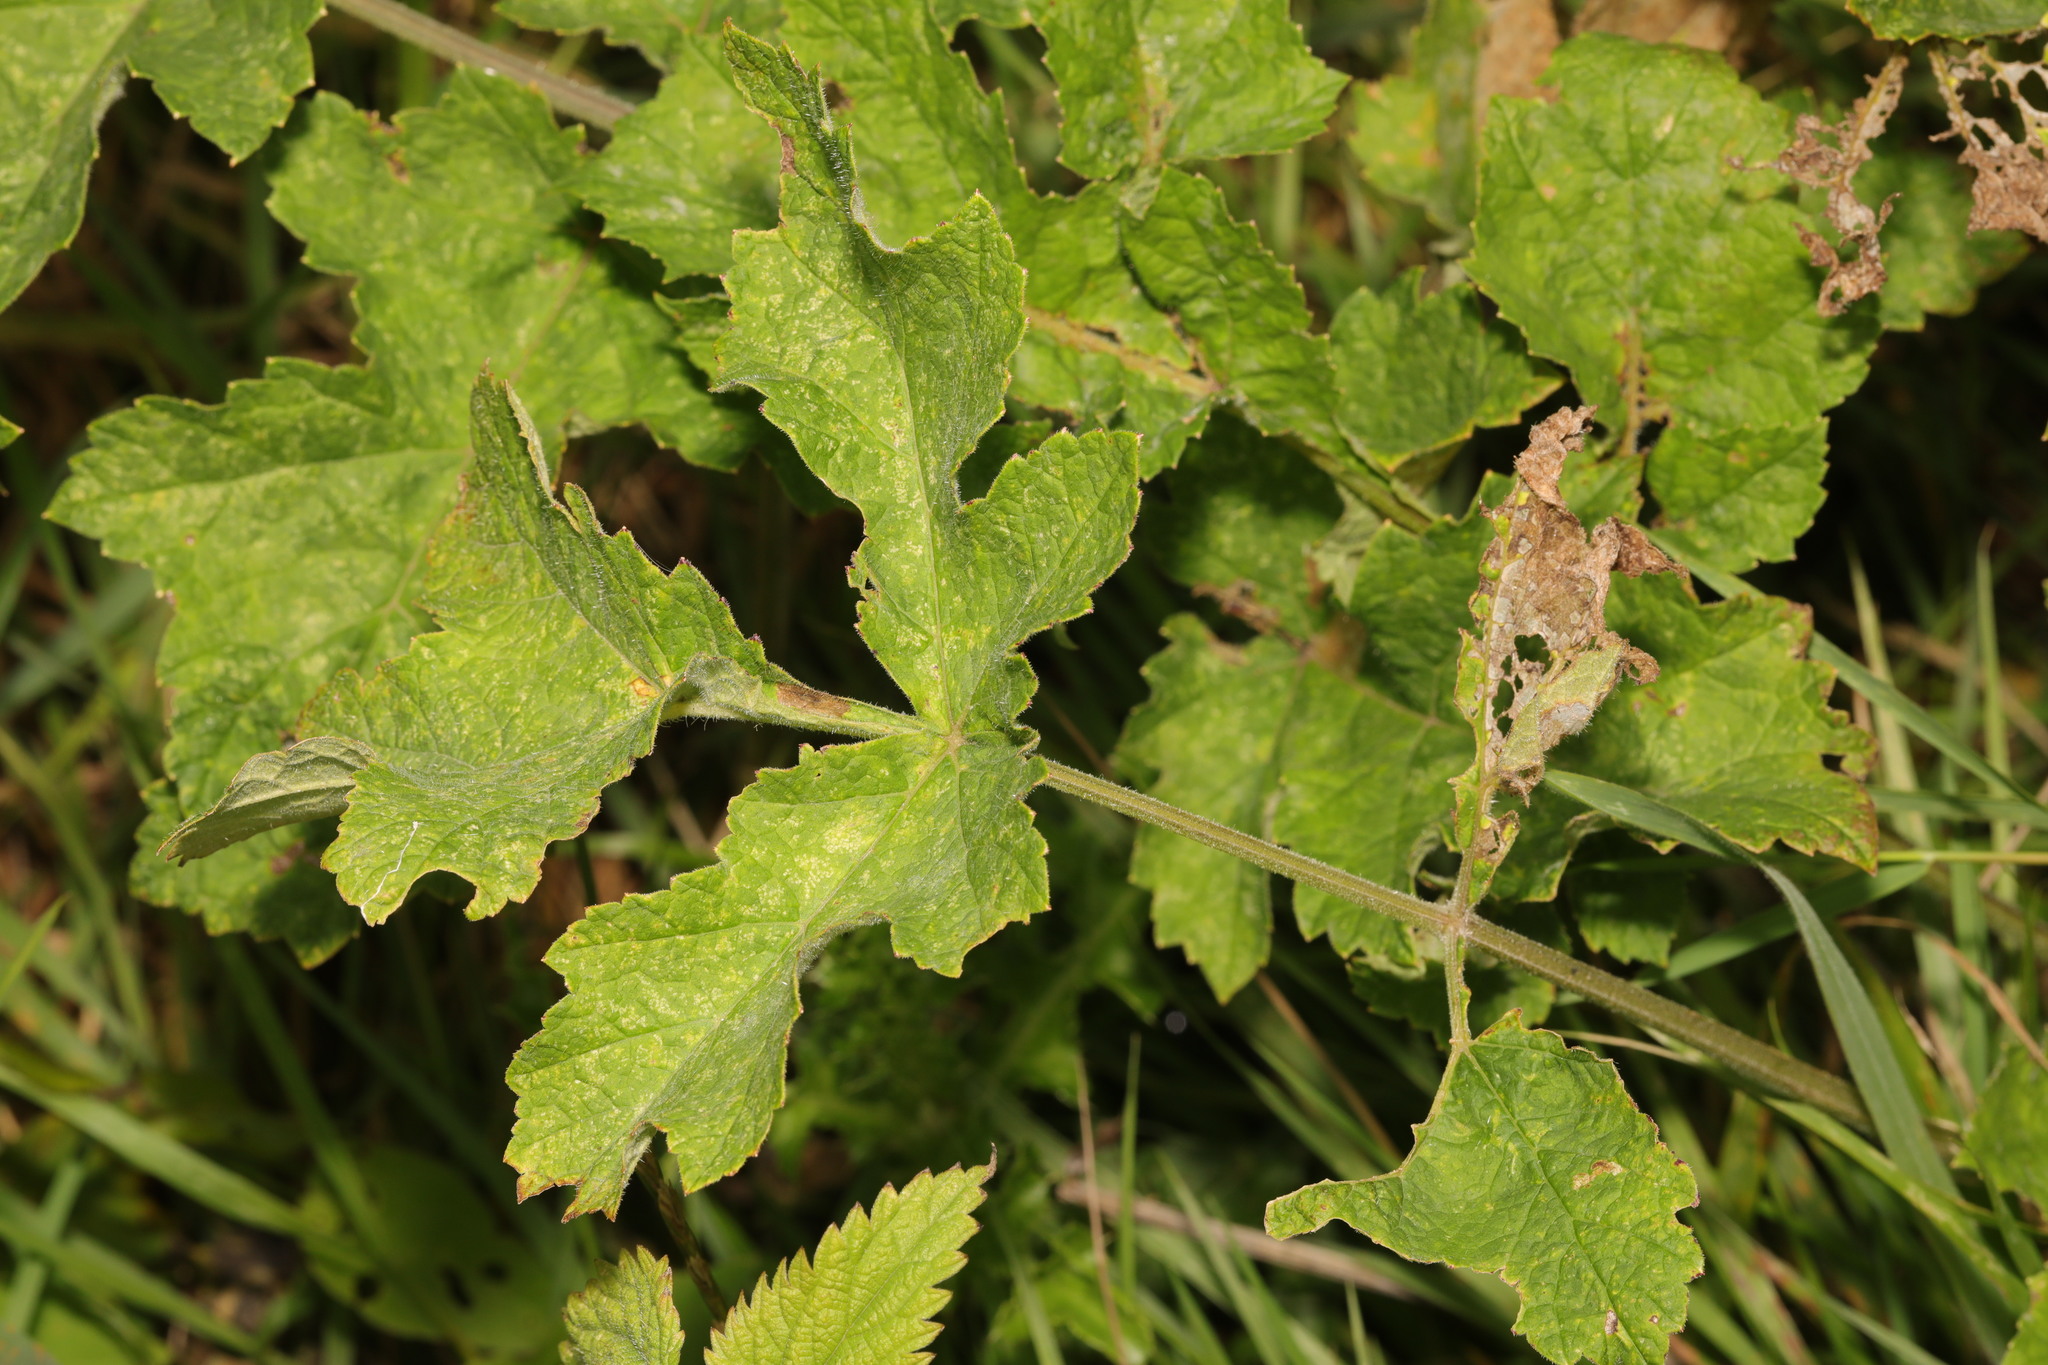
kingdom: Plantae
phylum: Tracheophyta
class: Magnoliopsida
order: Apiales
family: Apiaceae
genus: Heracleum
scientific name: Heracleum sphondylium
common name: Hogweed
